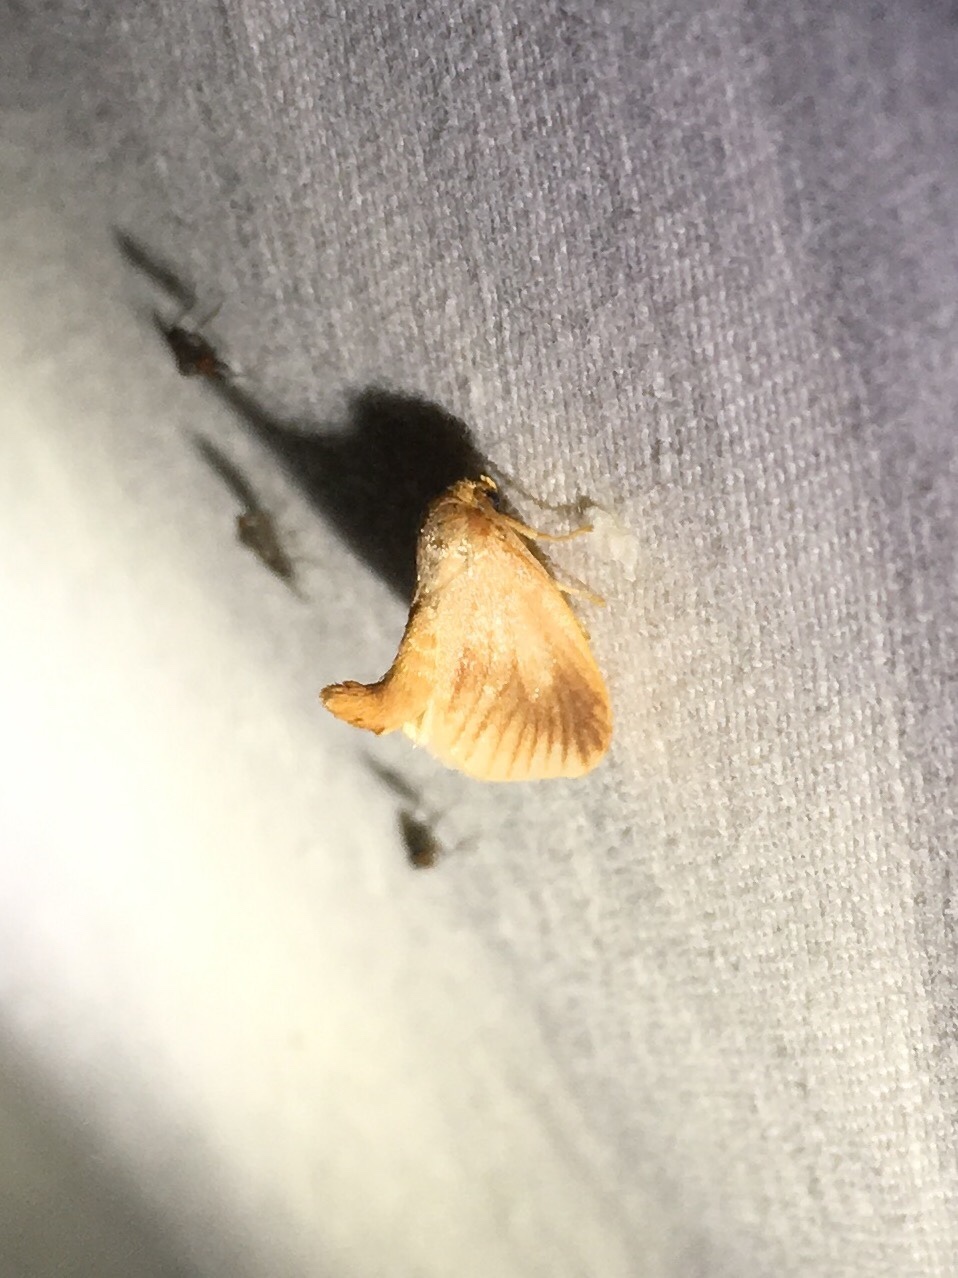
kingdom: Animalia
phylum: Arthropoda
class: Insecta
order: Lepidoptera
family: Limacodidae
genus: Tortricidia
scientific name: Tortricidia testacea
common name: Early button slug moth
